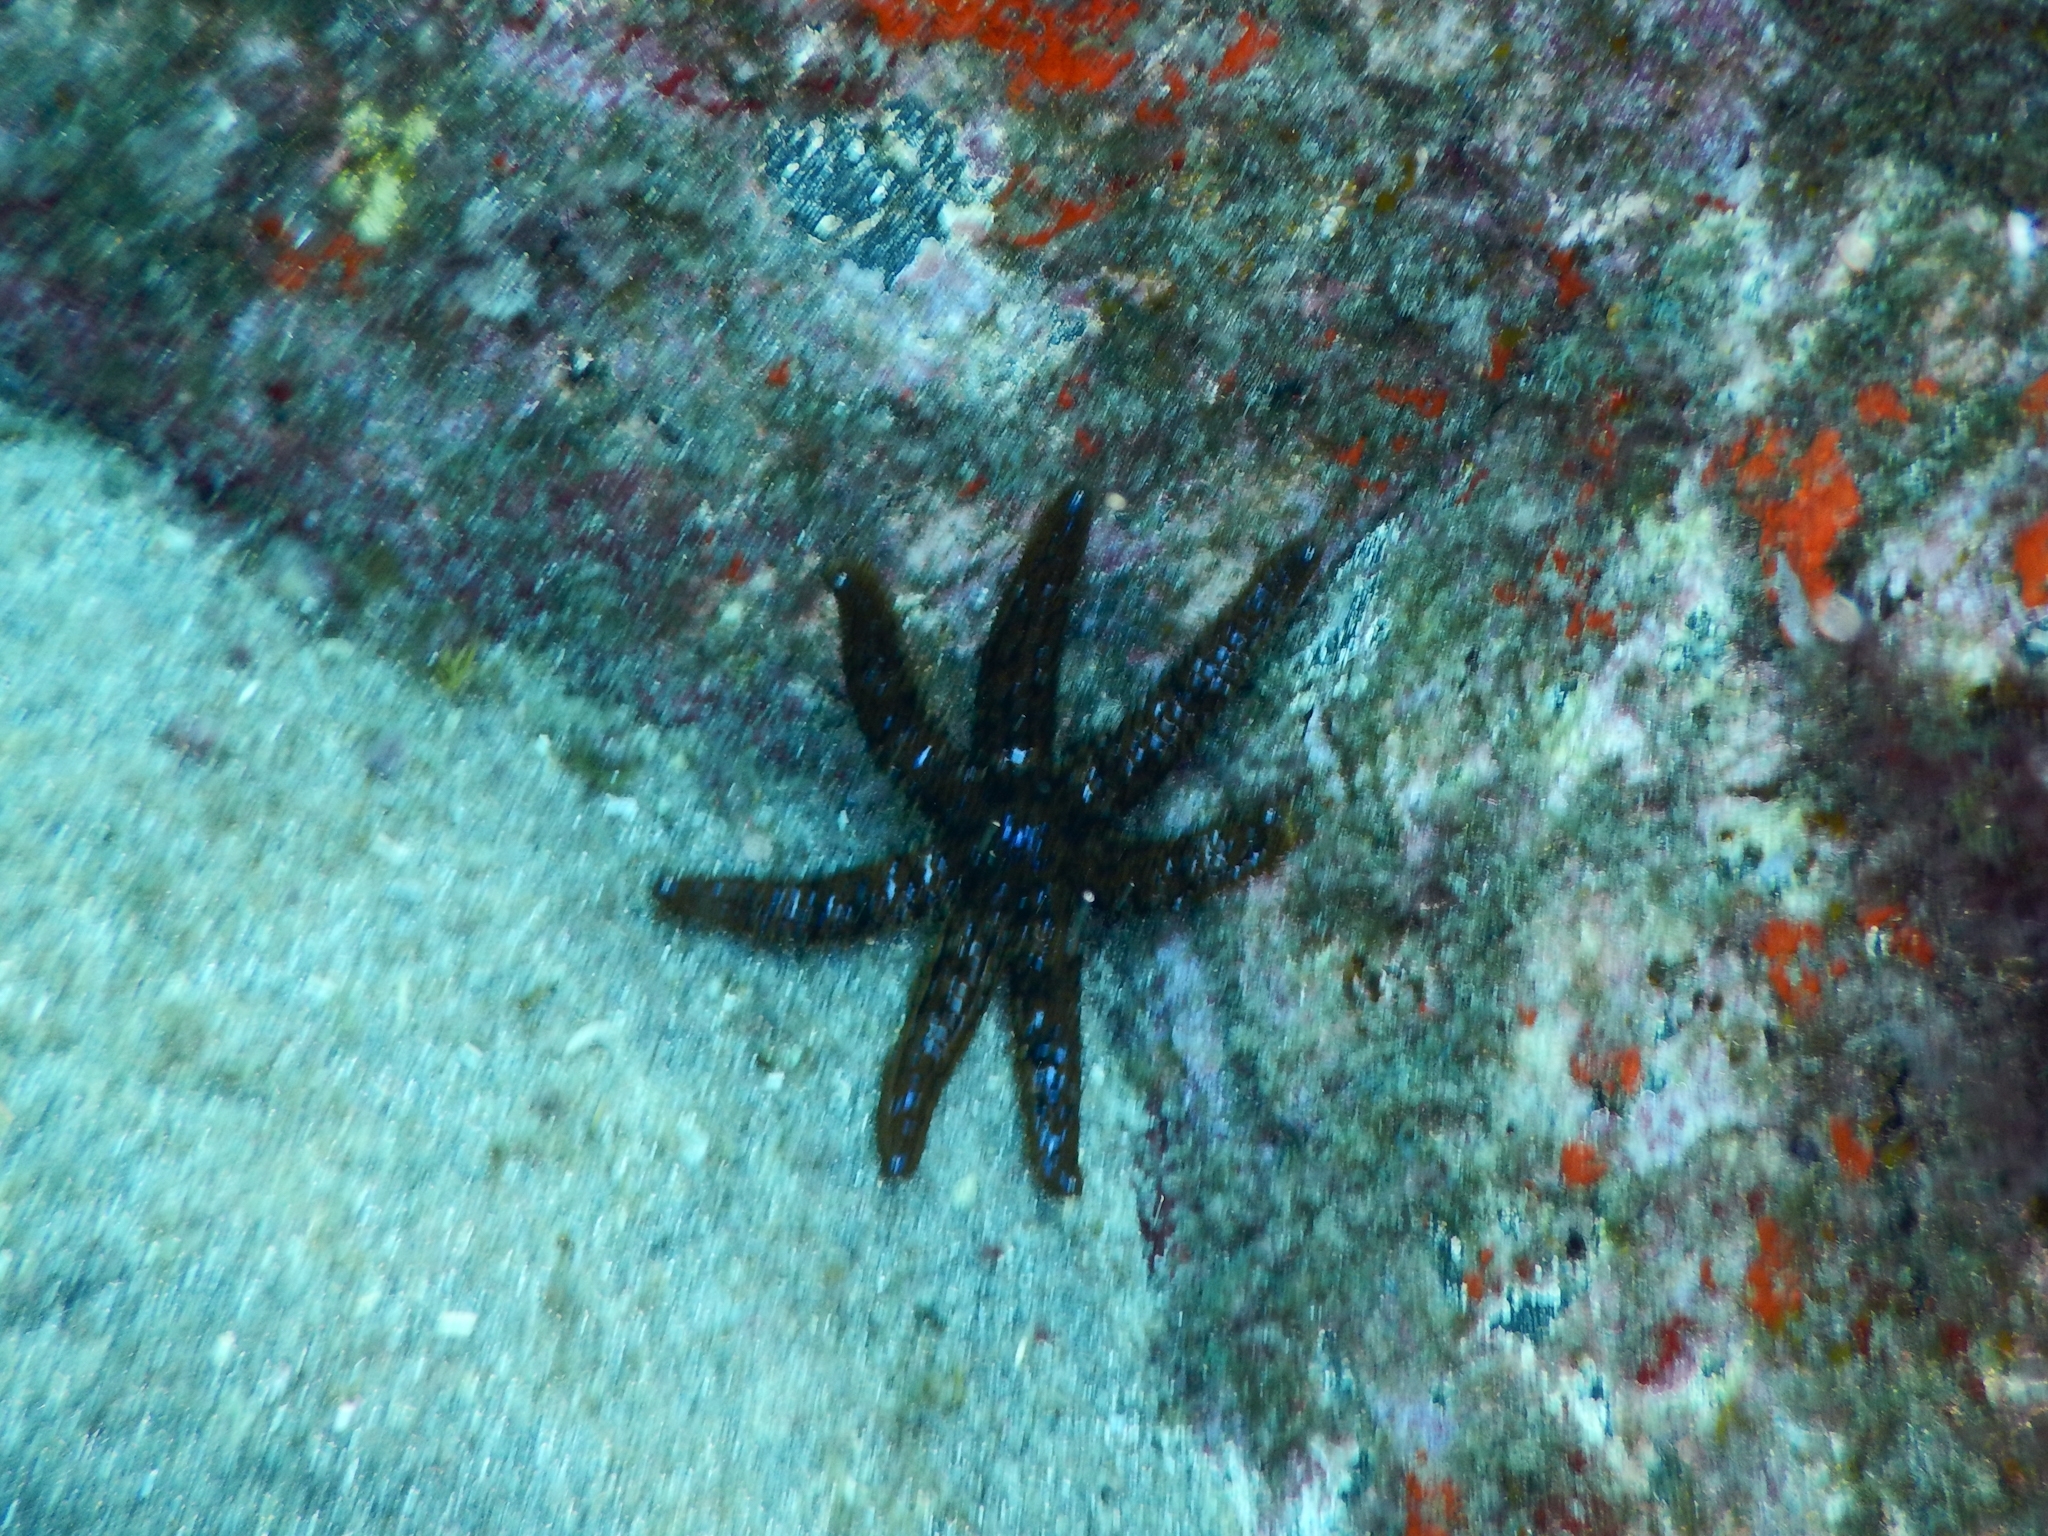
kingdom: Animalia
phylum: Echinodermata
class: Asteroidea
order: Forcipulatida
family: Asteriidae
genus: Coscinasterias
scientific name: Coscinasterias tenuispina
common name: Blue spiny starfish
